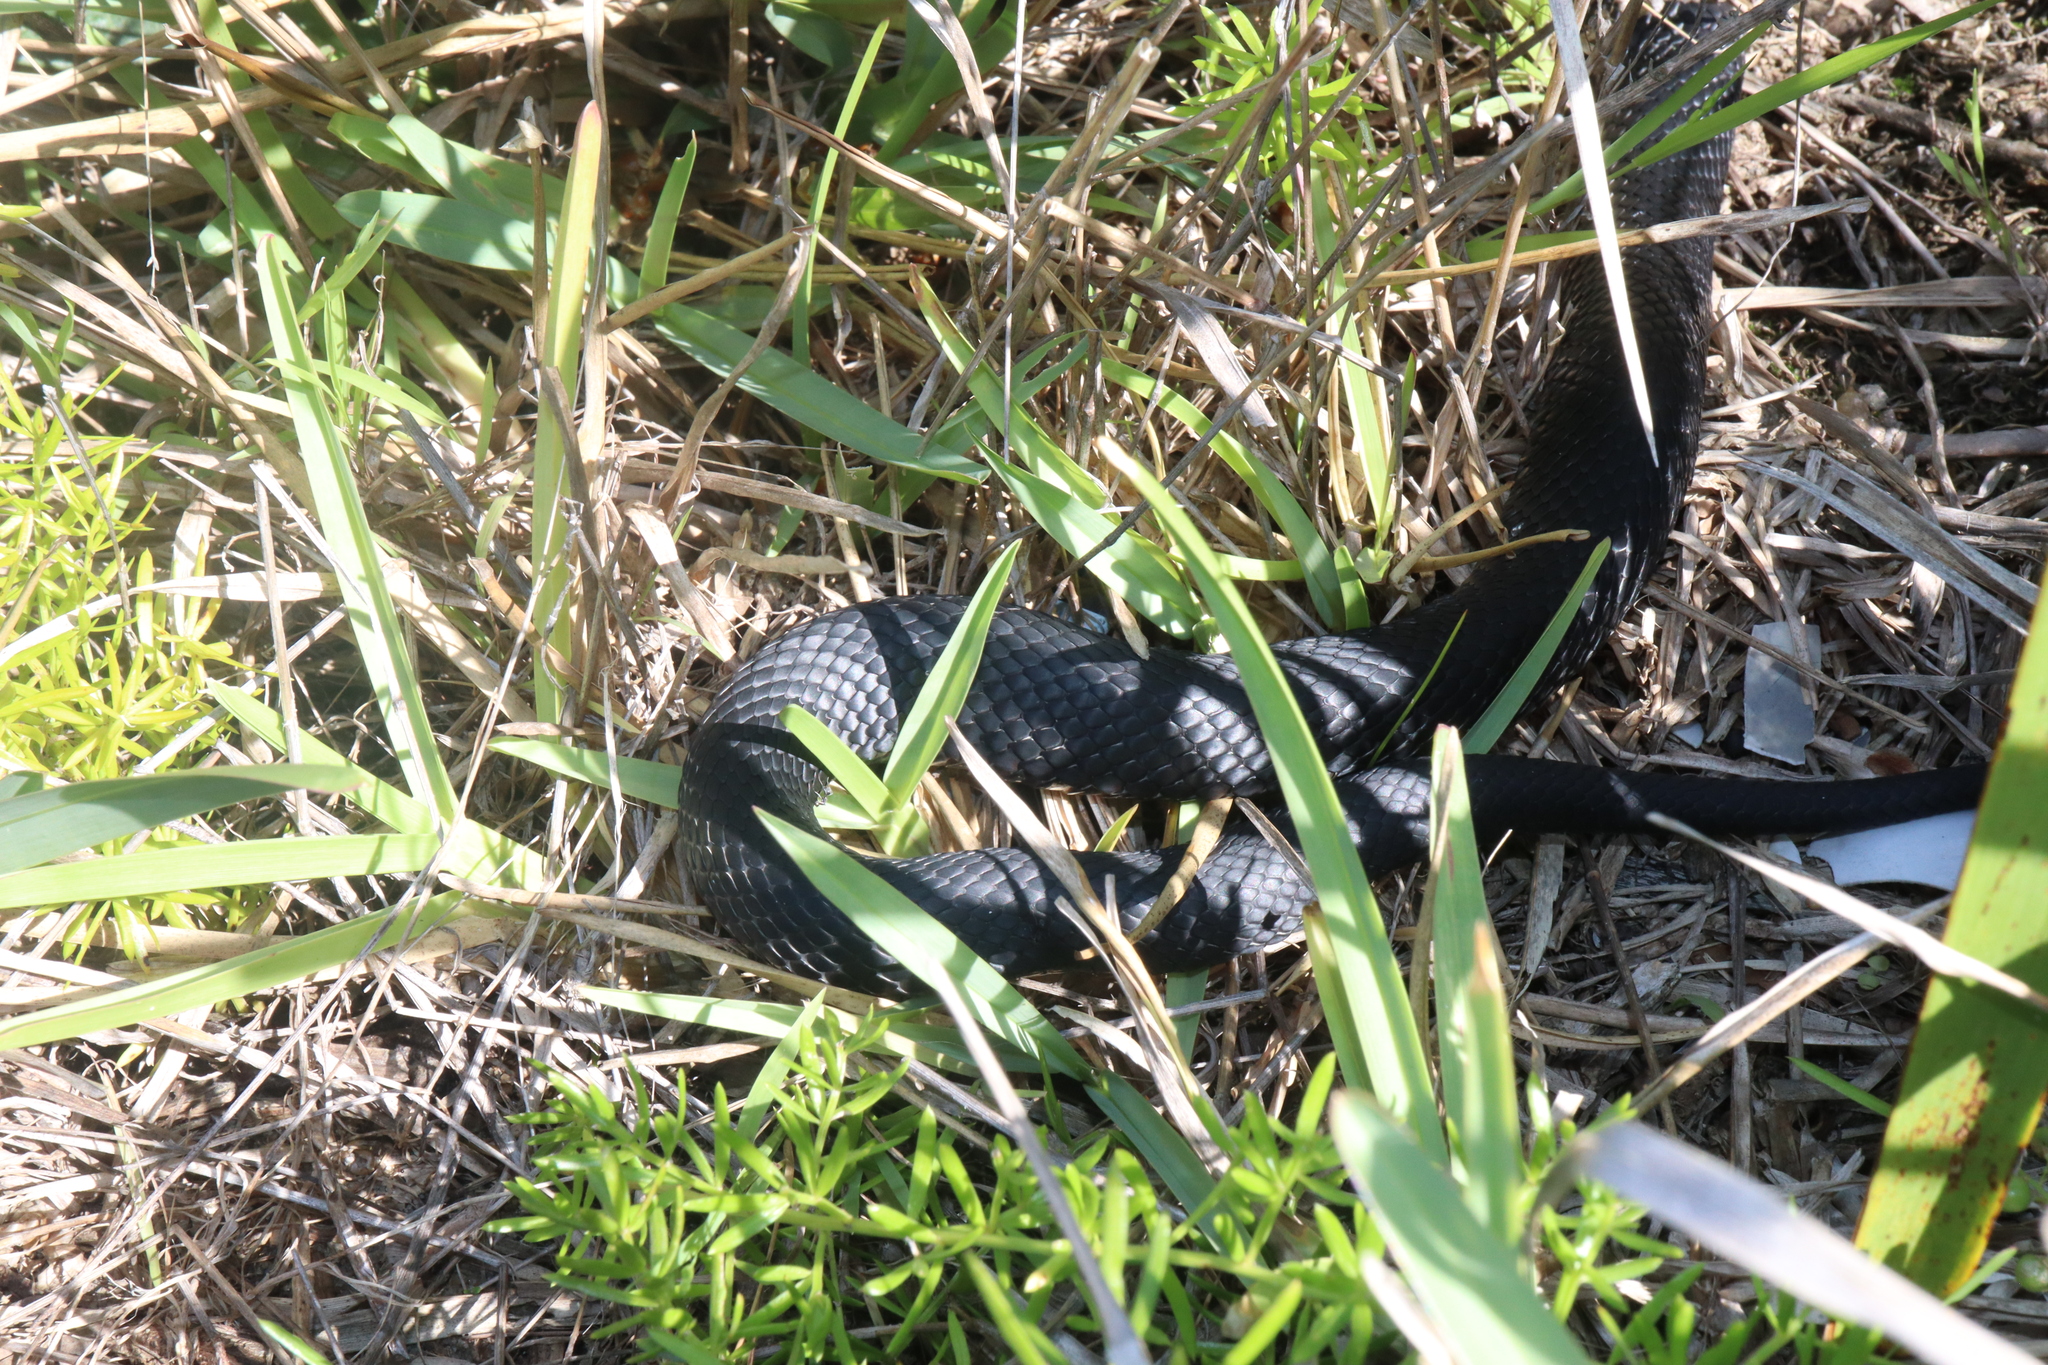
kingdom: Animalia
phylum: Chordata
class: Squamata
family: Elapidae
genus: Pseudechis
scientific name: Pseudechis porphyriacus
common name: Australian black snake
